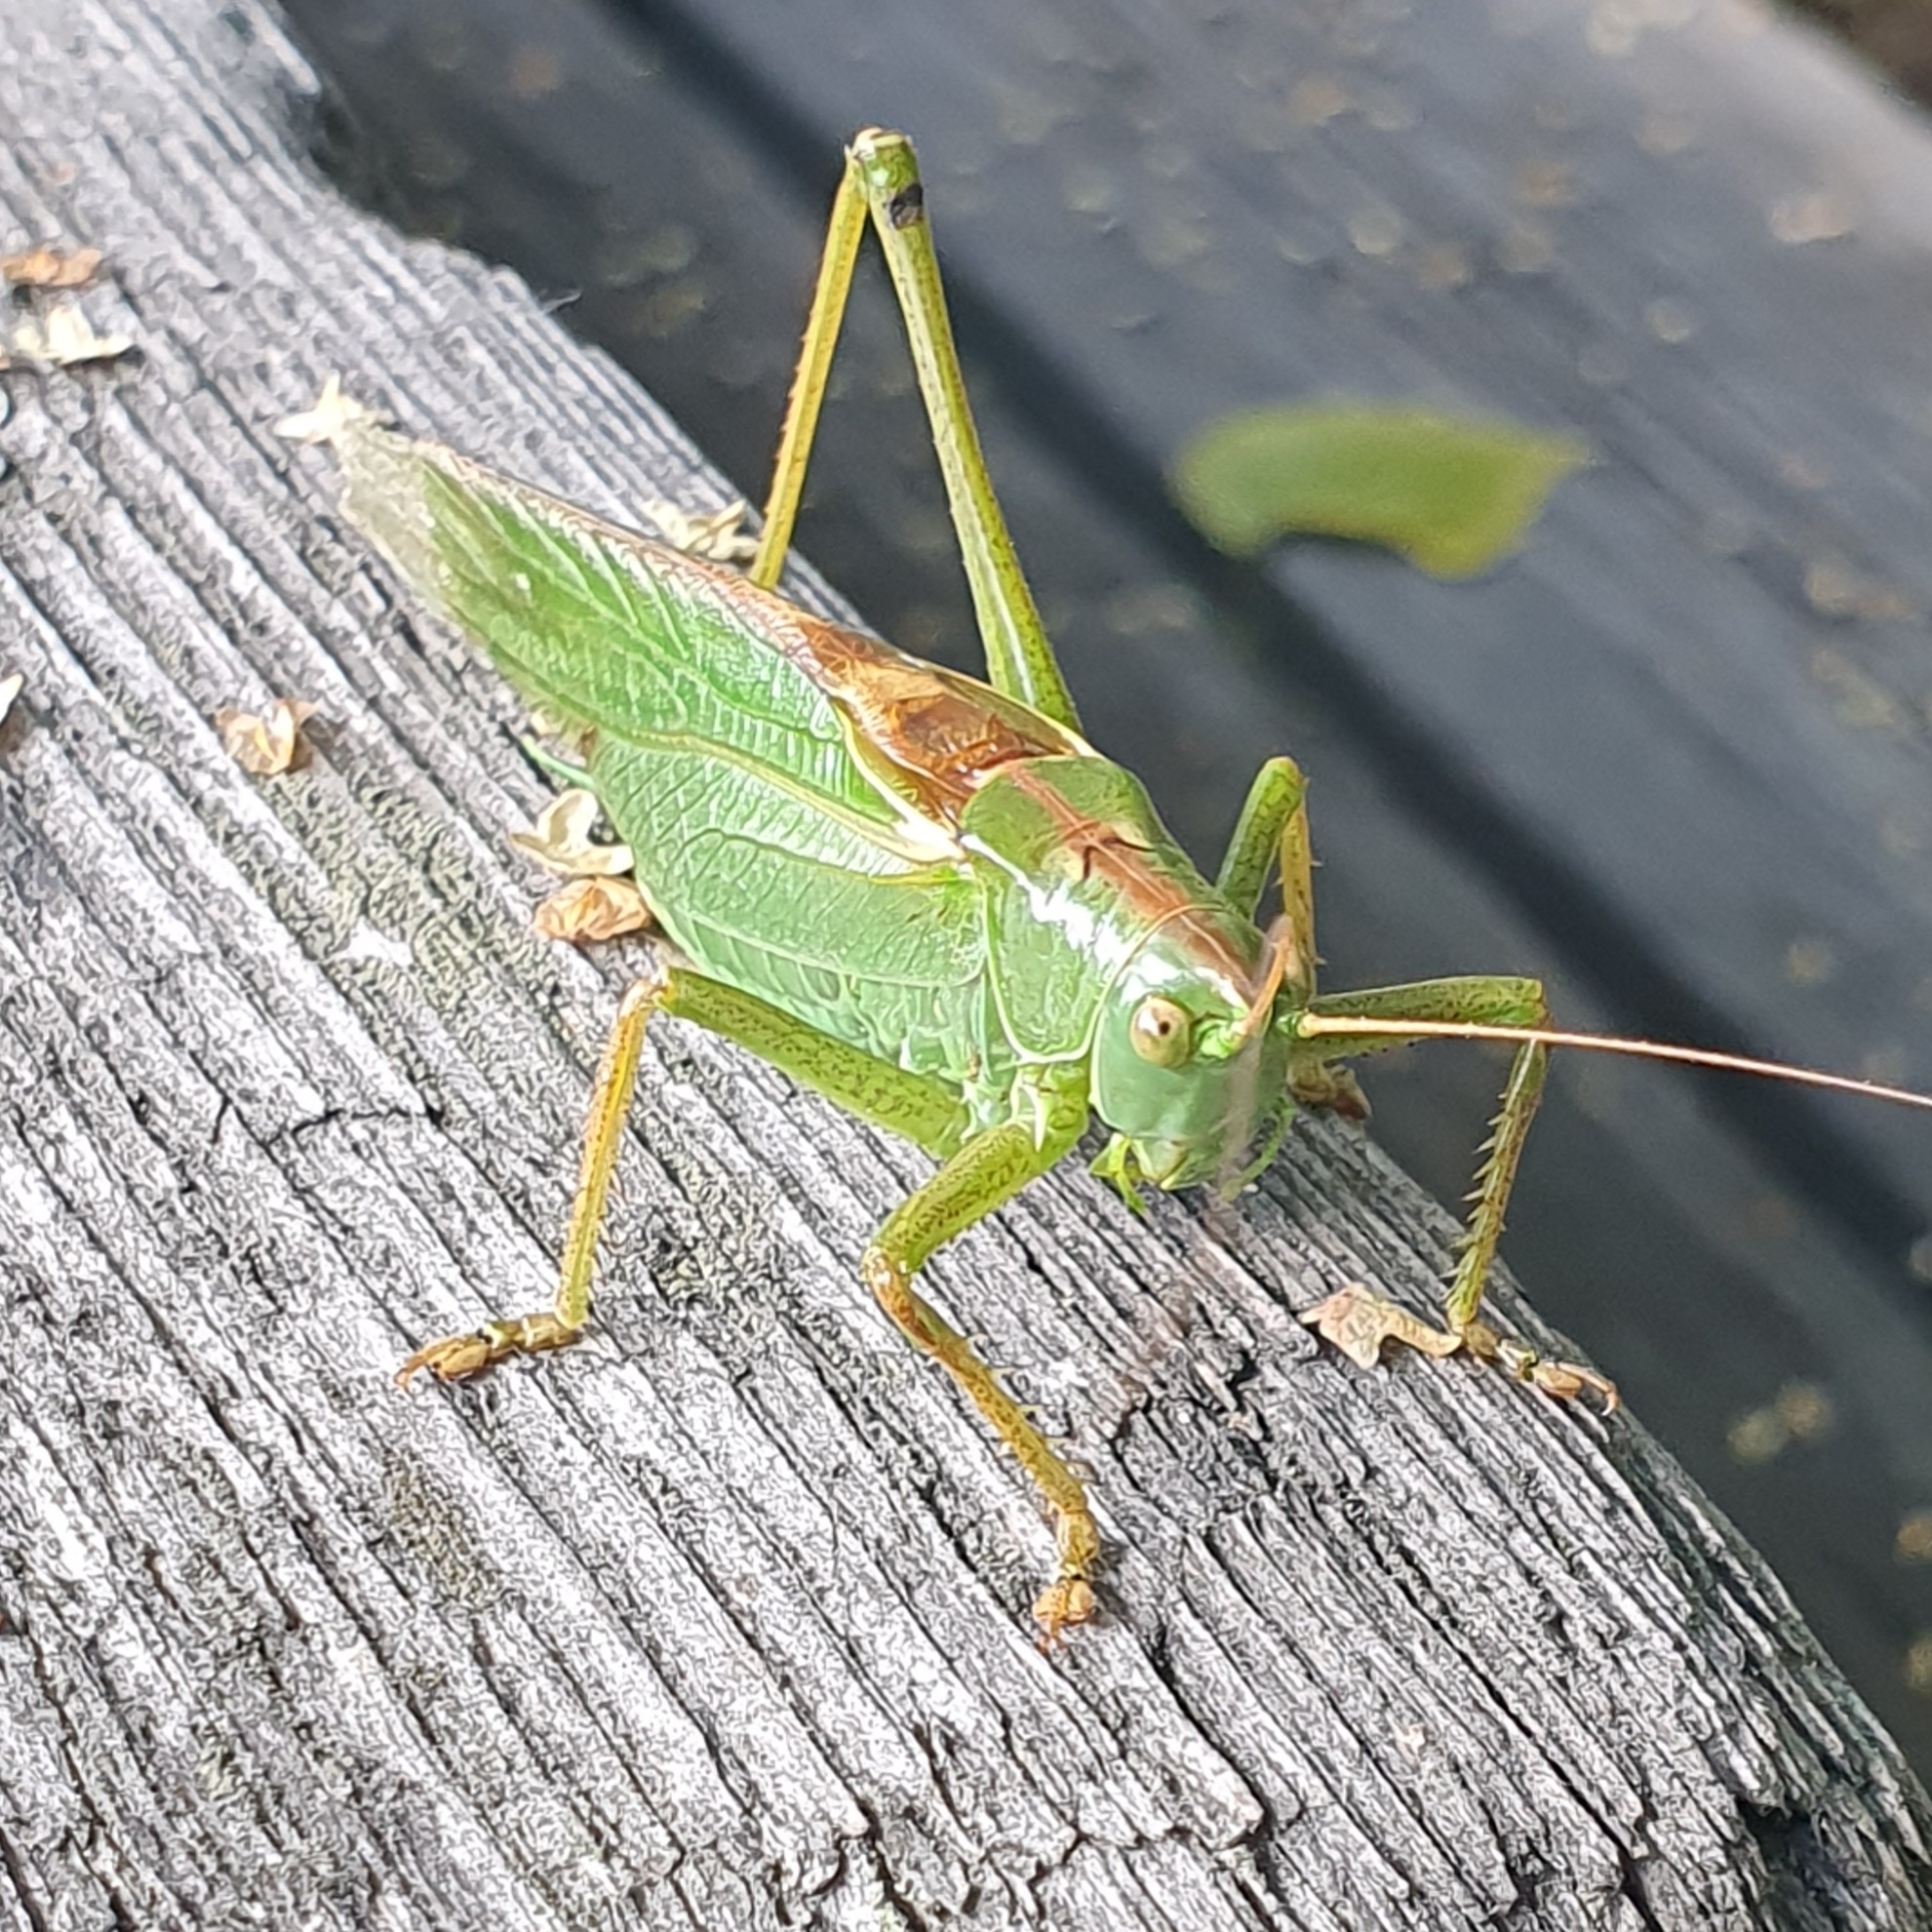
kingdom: Animalia
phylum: Arthropoda
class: Insecta
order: Orthoptera
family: Tettigoniidae
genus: Tettigonia
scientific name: Tettigonia viridissima
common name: Great green bush-cricket
